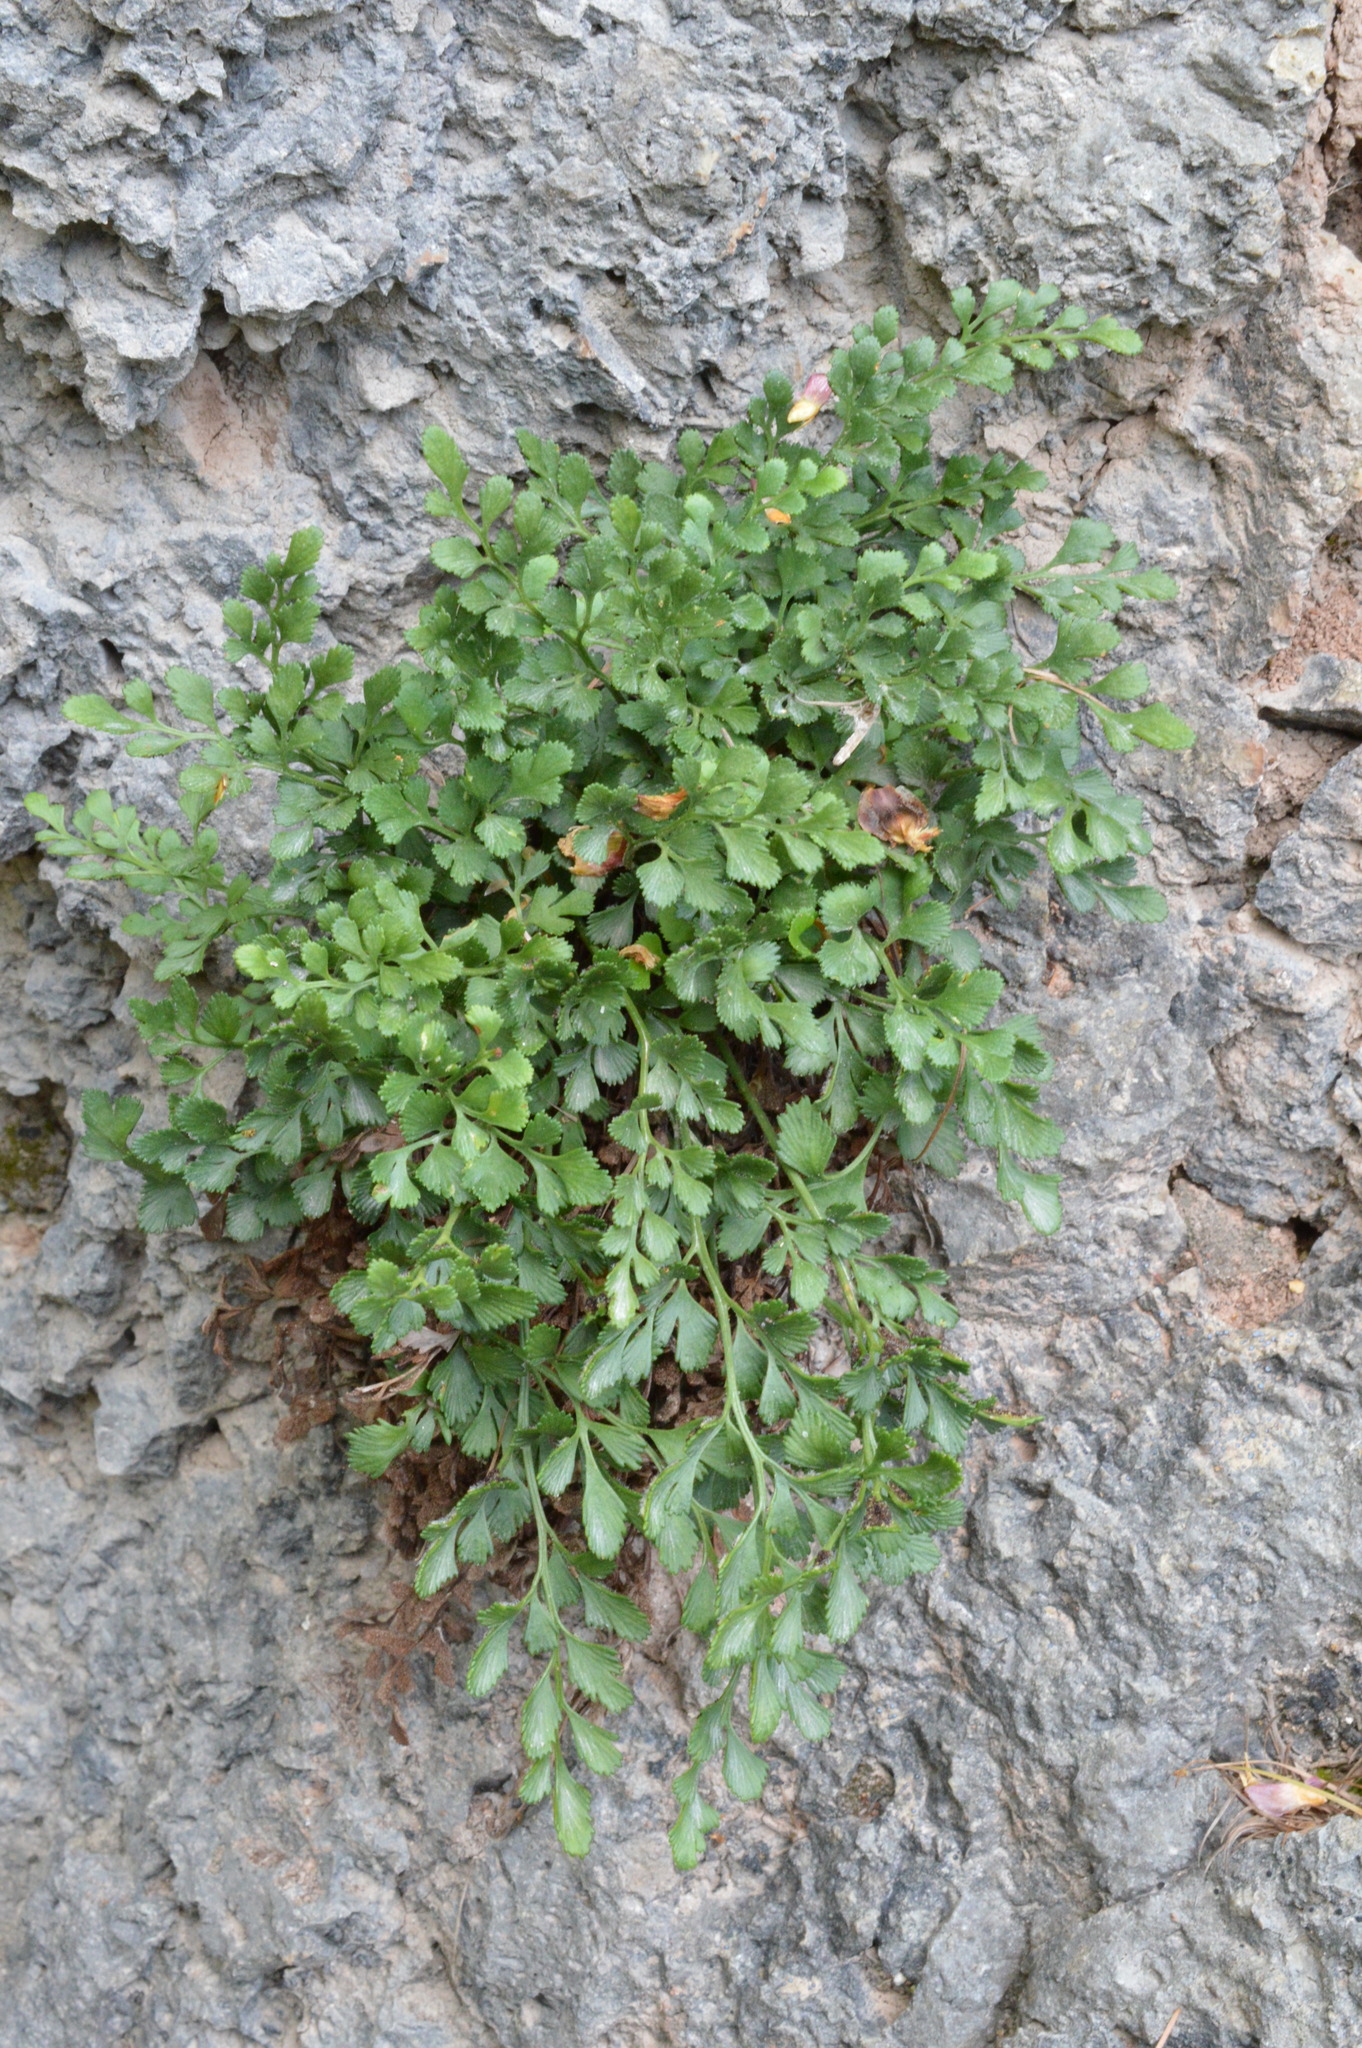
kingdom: Plantae
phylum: Tracheophyta
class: Polypodiopsida
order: Polypodiales
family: Aspleniaceae
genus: Asplenium
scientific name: Asplenium ruta-muraria
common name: Wall-rue
